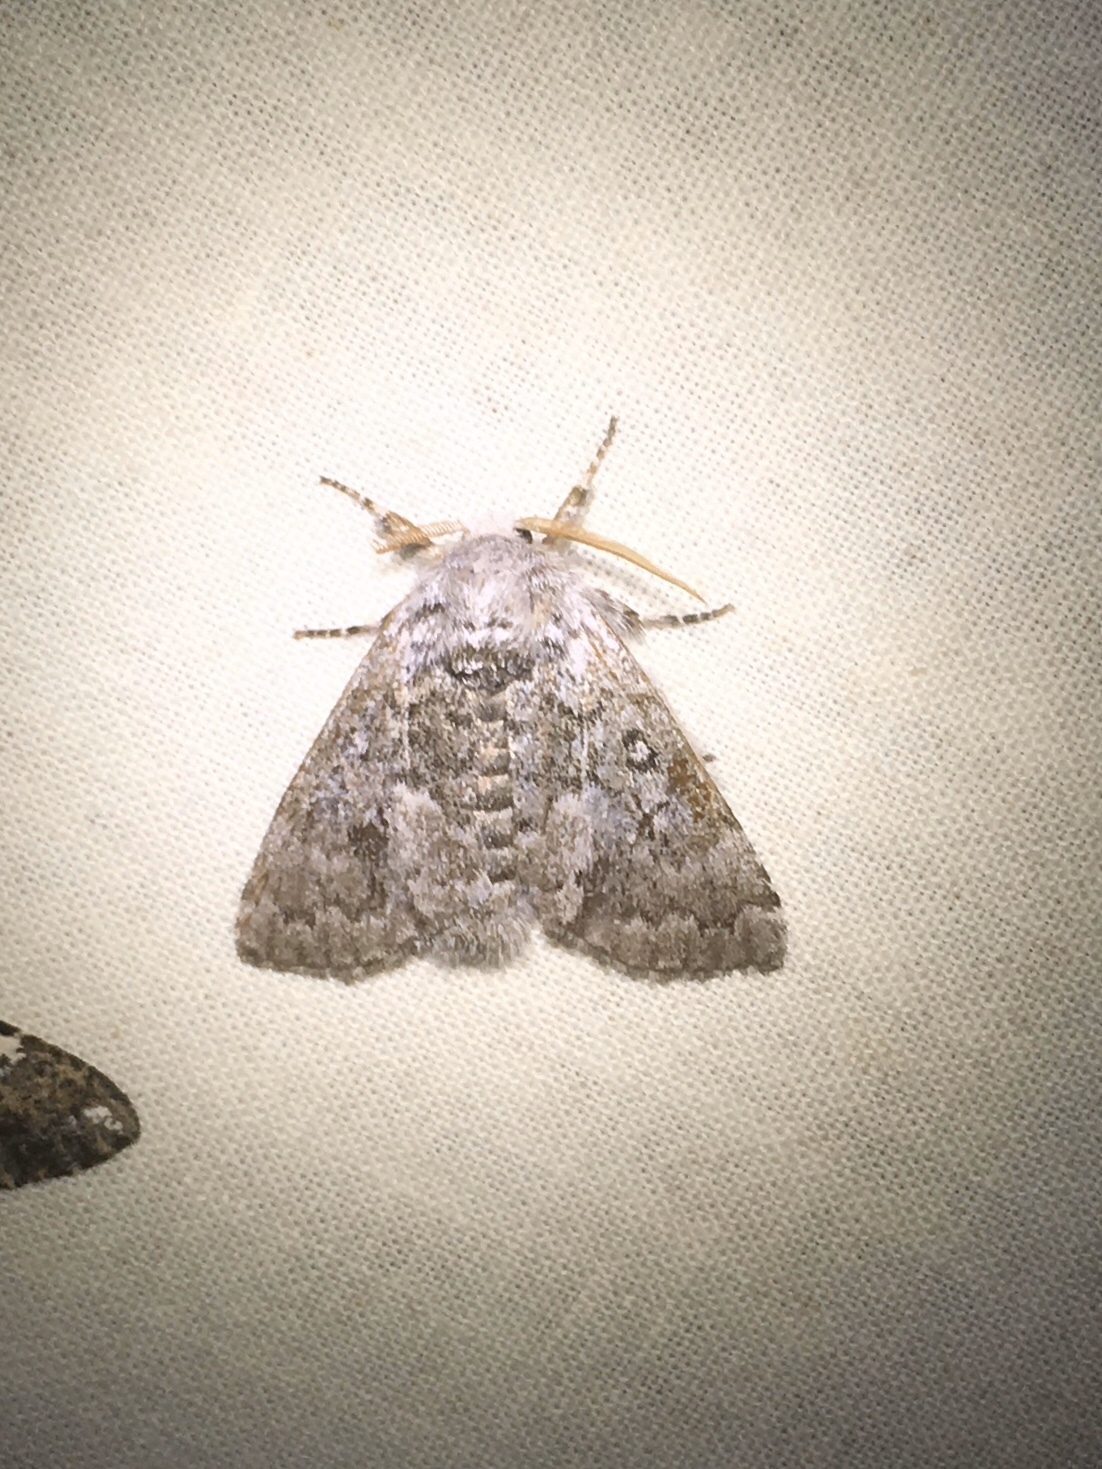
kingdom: Animalia
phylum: Arthropoda
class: Insecta
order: Lepidoptera
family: Noctuidae
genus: Colocasia
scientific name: Colocasia propinquilinea
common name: Close-banded demas
